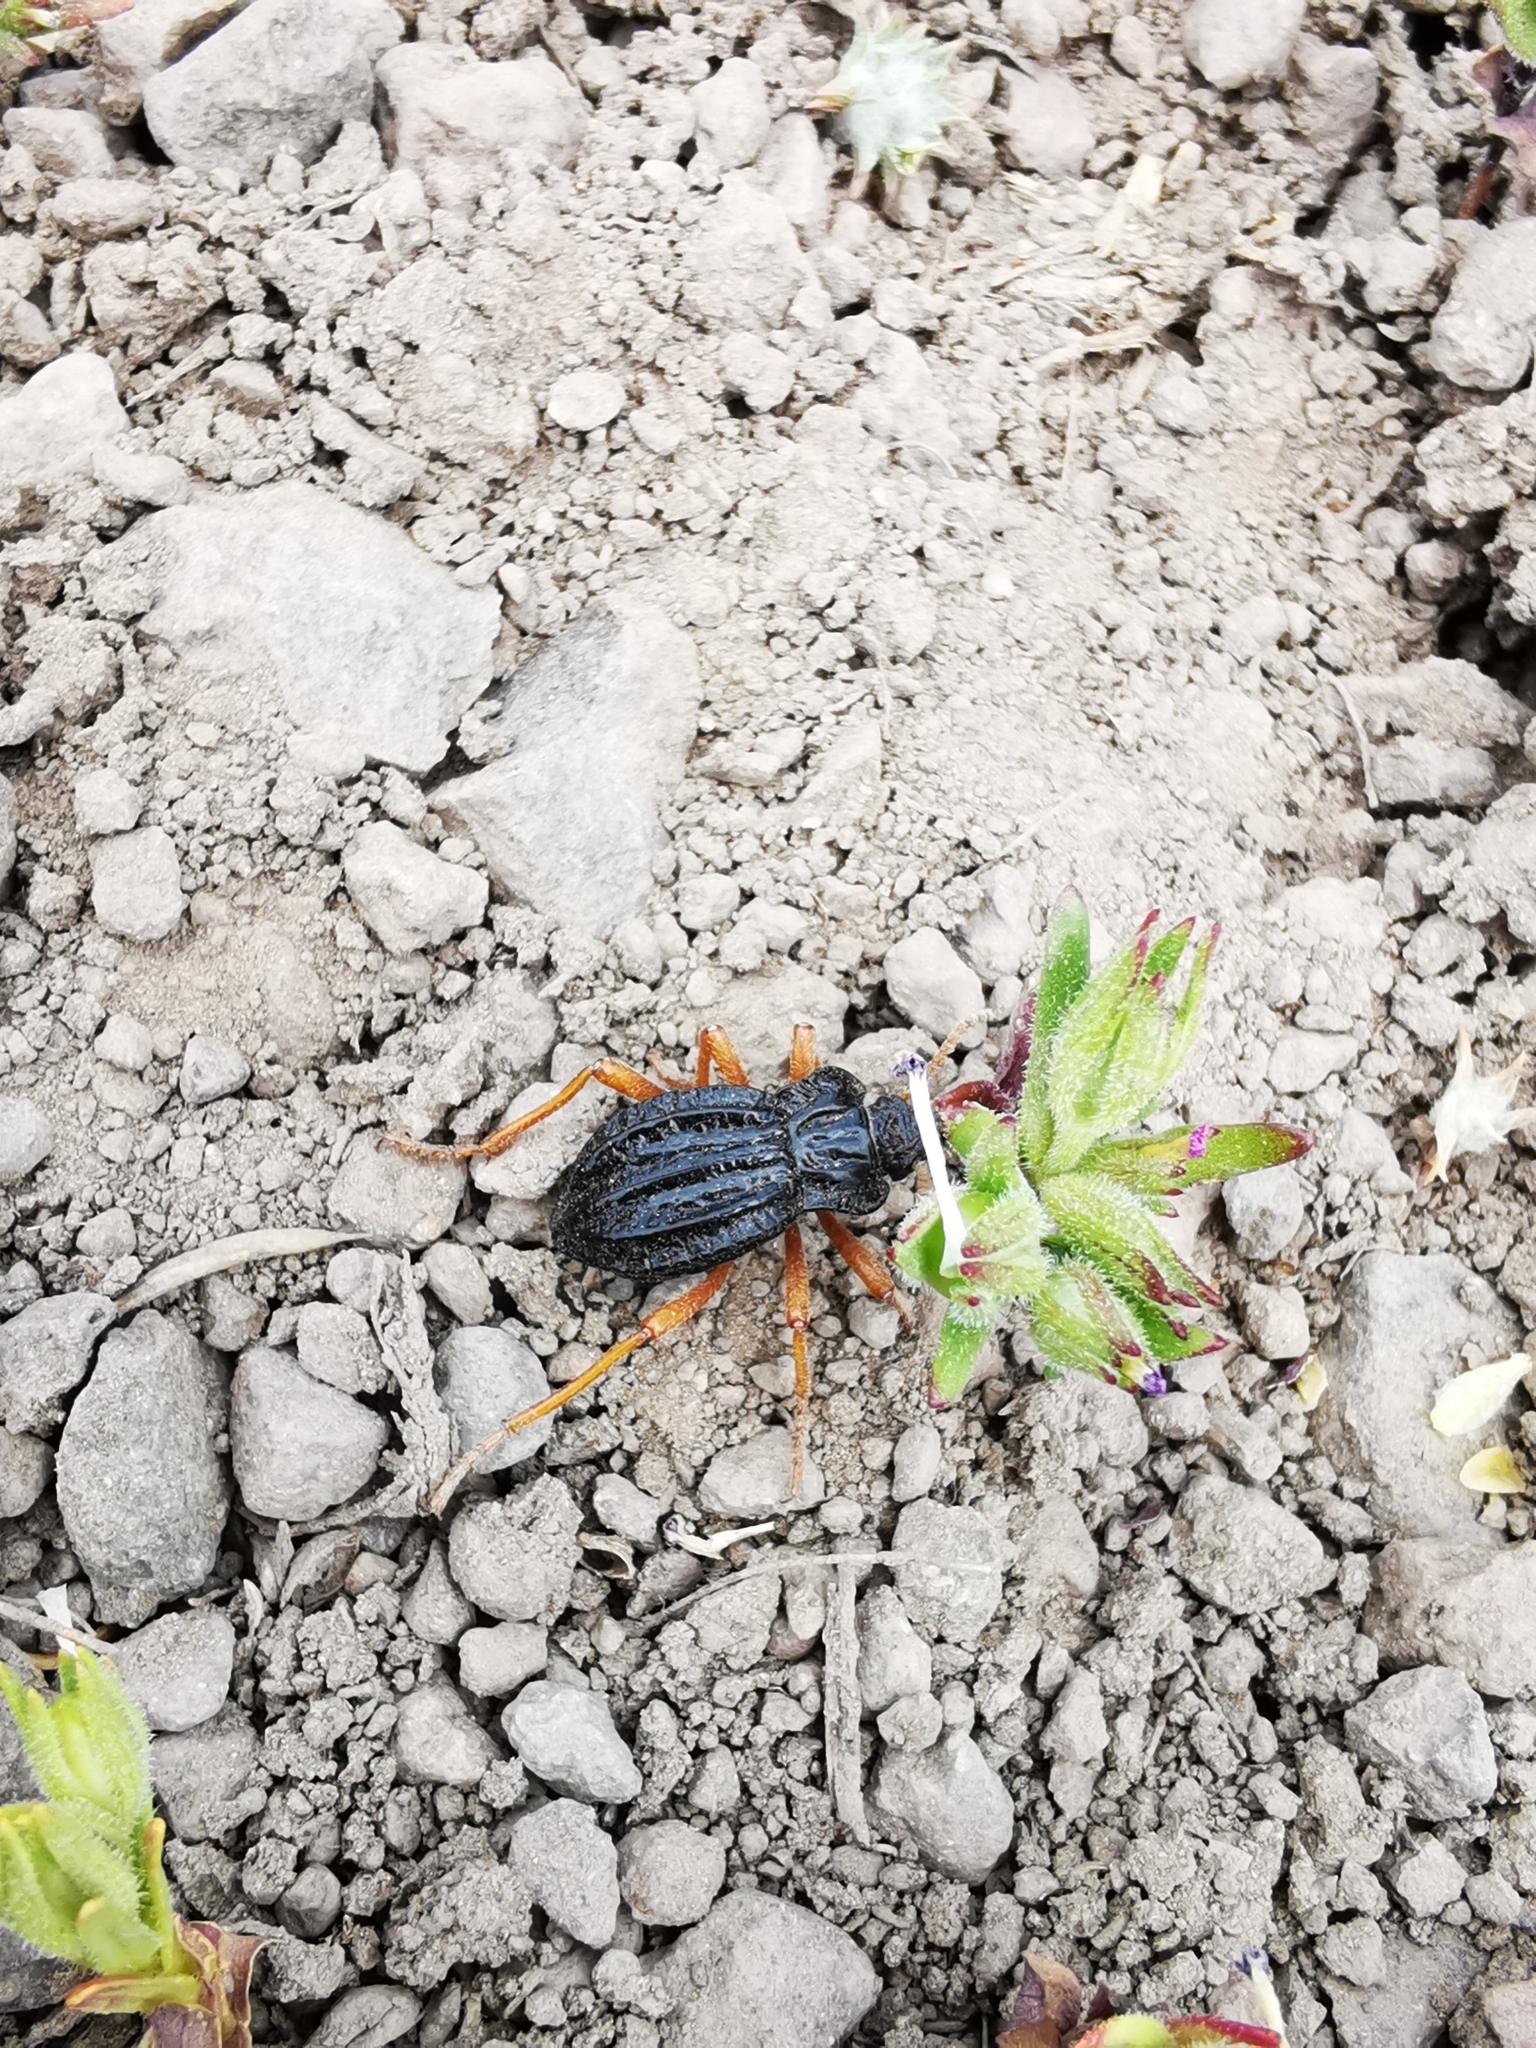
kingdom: Animalia
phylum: Arthropoda
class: Insecta
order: Coleoptera
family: Tenebrionidae
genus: Callyntra
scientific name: Callyntra
